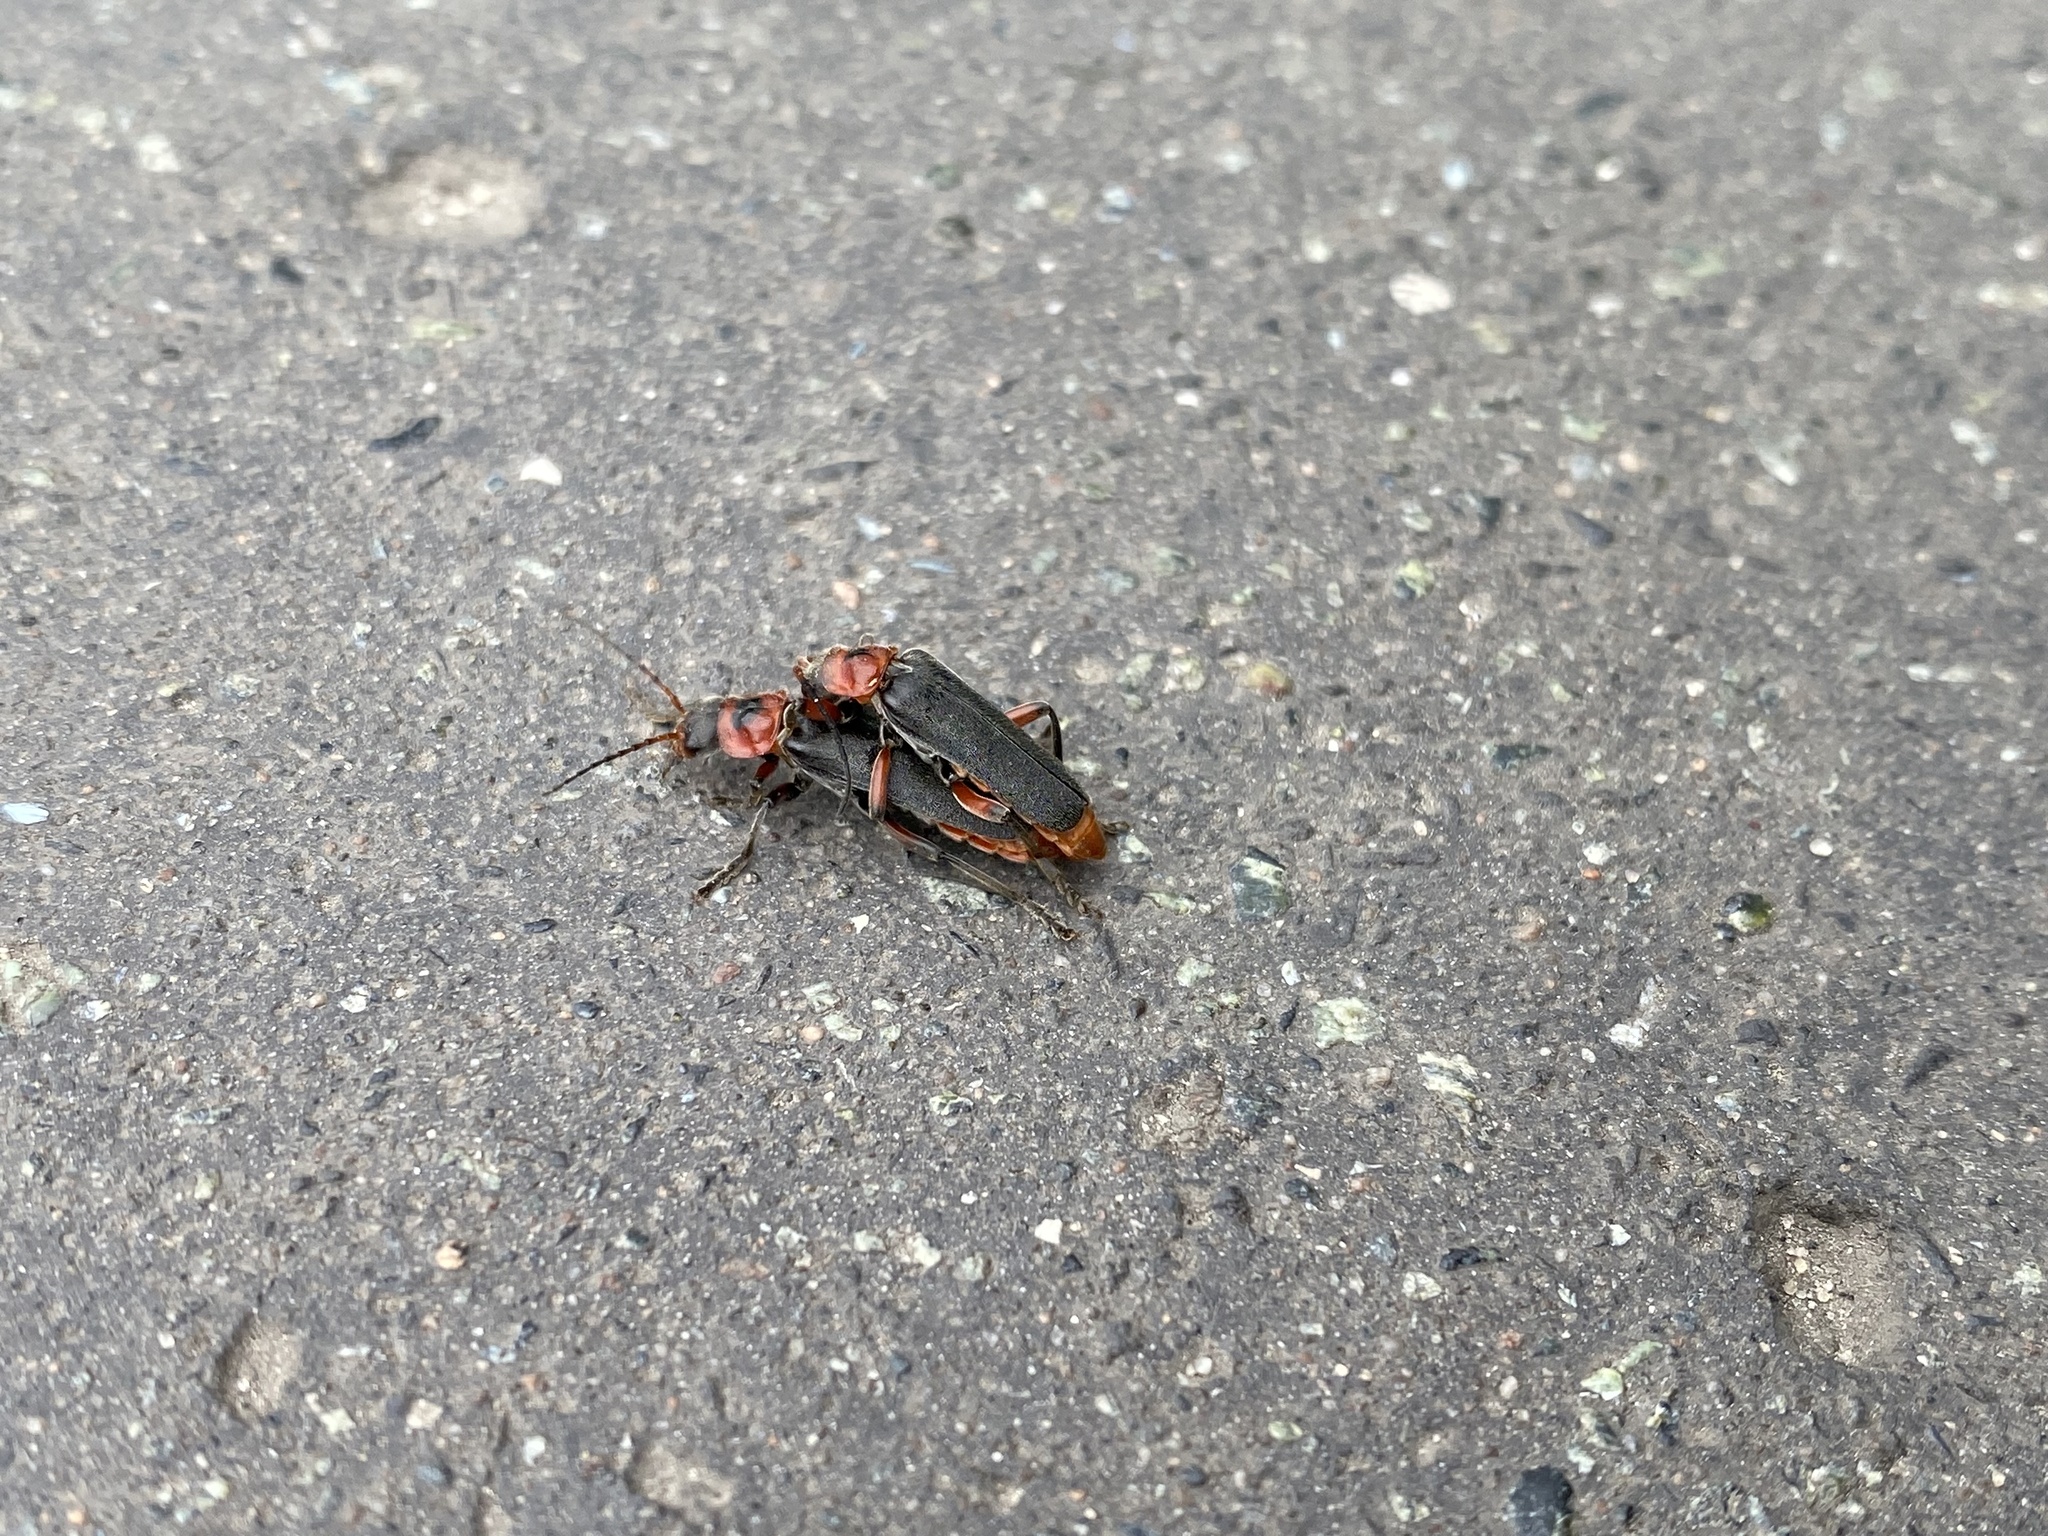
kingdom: Animalia
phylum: Arthropoda
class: Insecta
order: Coleoptera
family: Cantharidae
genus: Cantharis
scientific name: Cantharis rustica
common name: Soldier beetle
